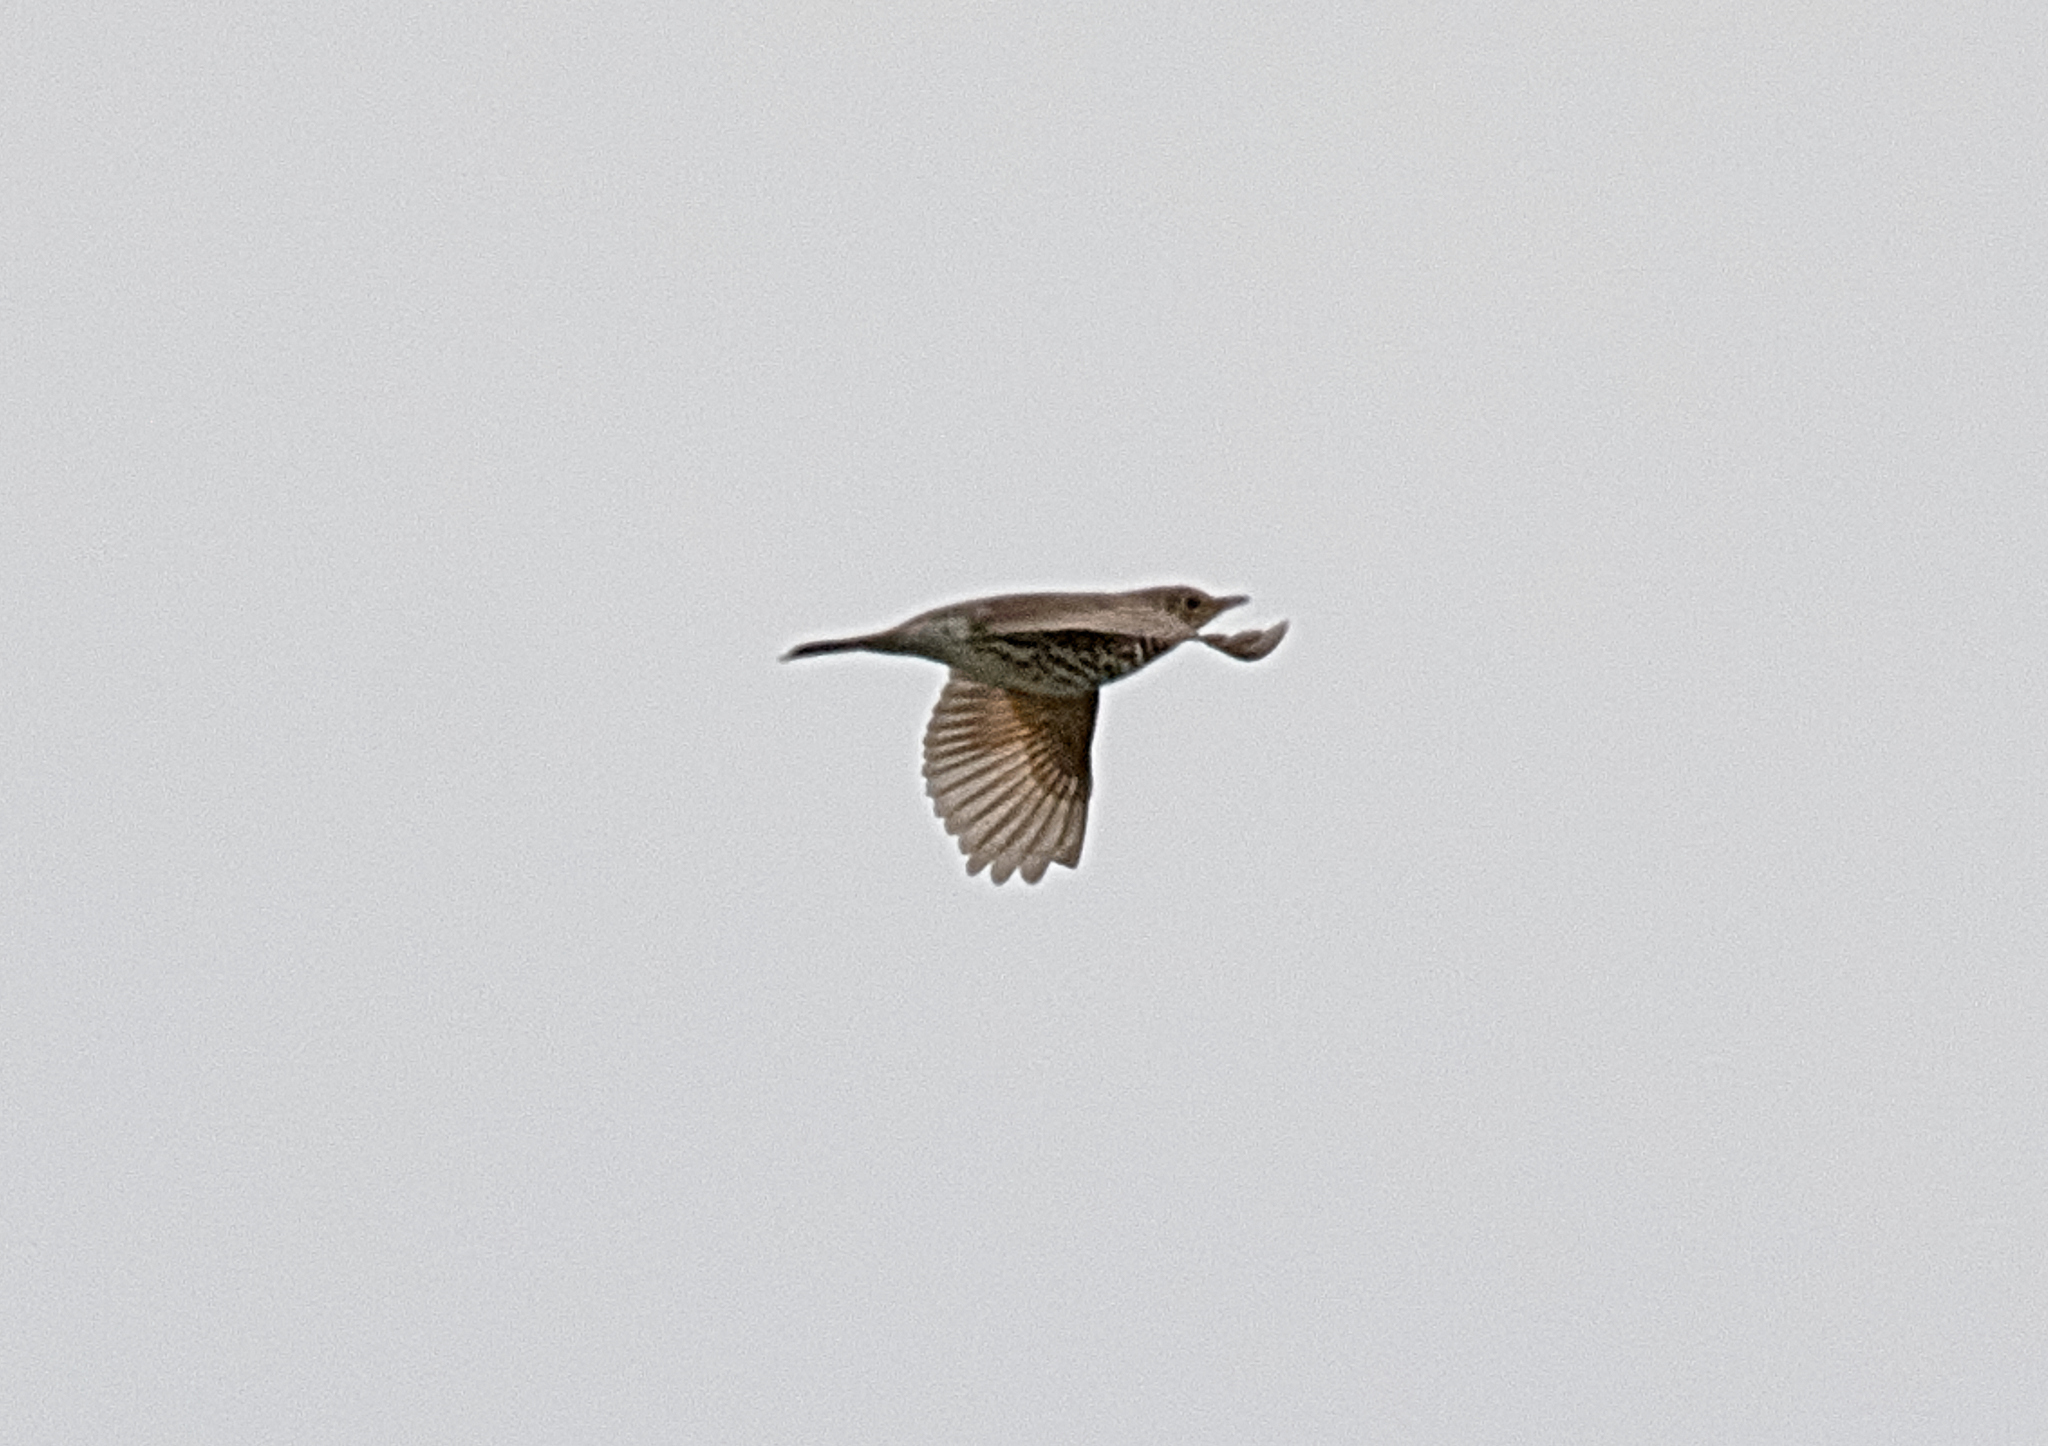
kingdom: Animalia
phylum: Chordata
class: Aves
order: Passeriformes
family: Turdidae
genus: Turdus
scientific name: Turdus philomelos
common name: Song thrush
